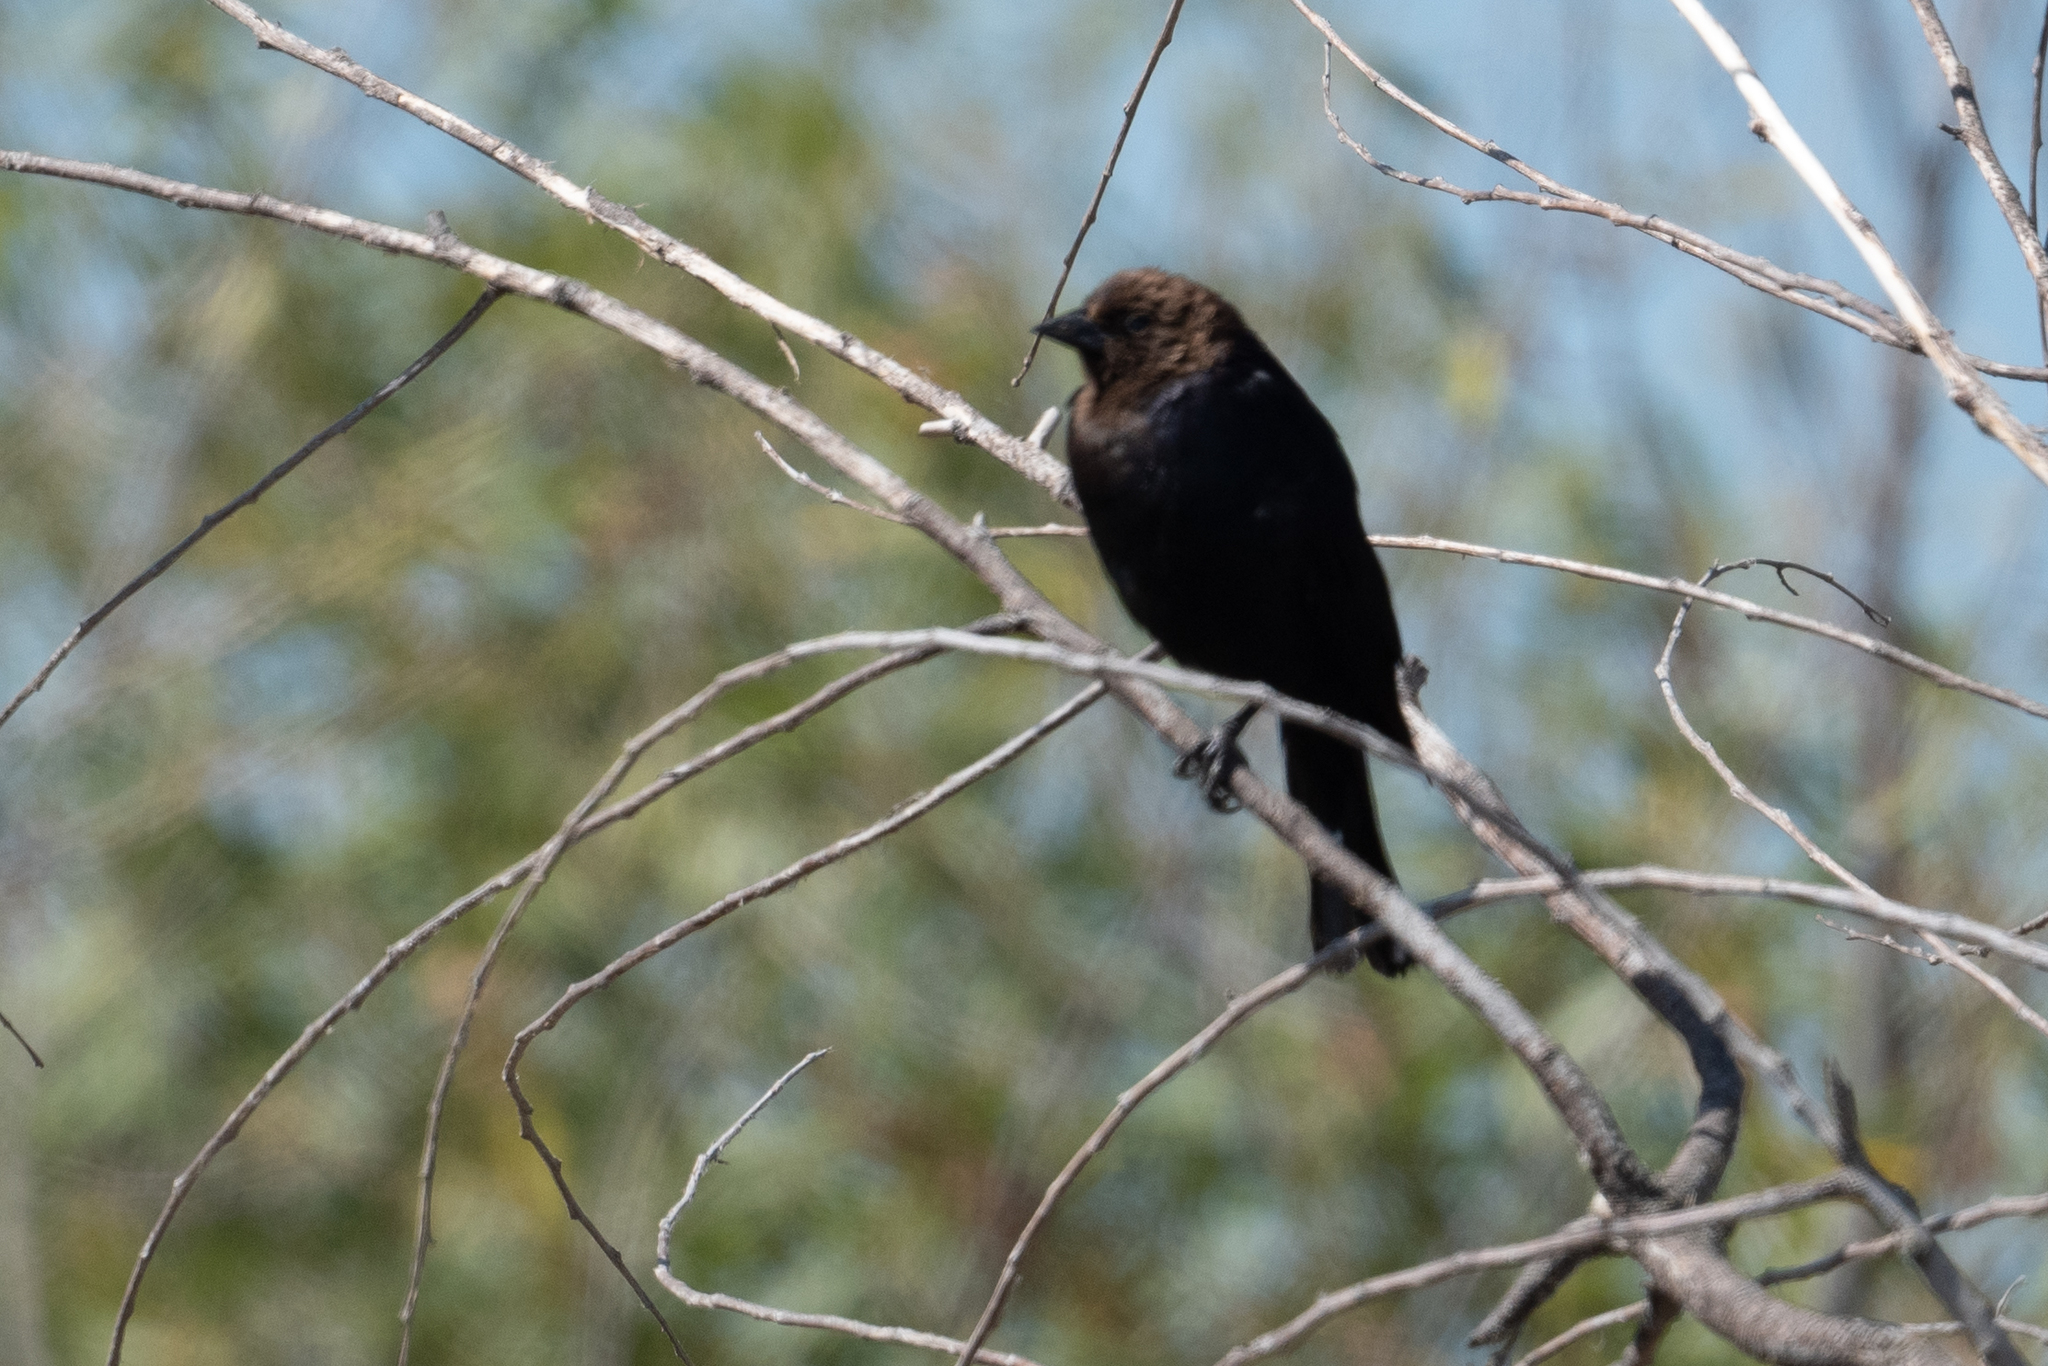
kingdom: Animalia
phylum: Chordata
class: Aves
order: Passeriformes
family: Icteridae
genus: Molothrus
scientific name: Molothrus ater
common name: Brown-headed cowbird
